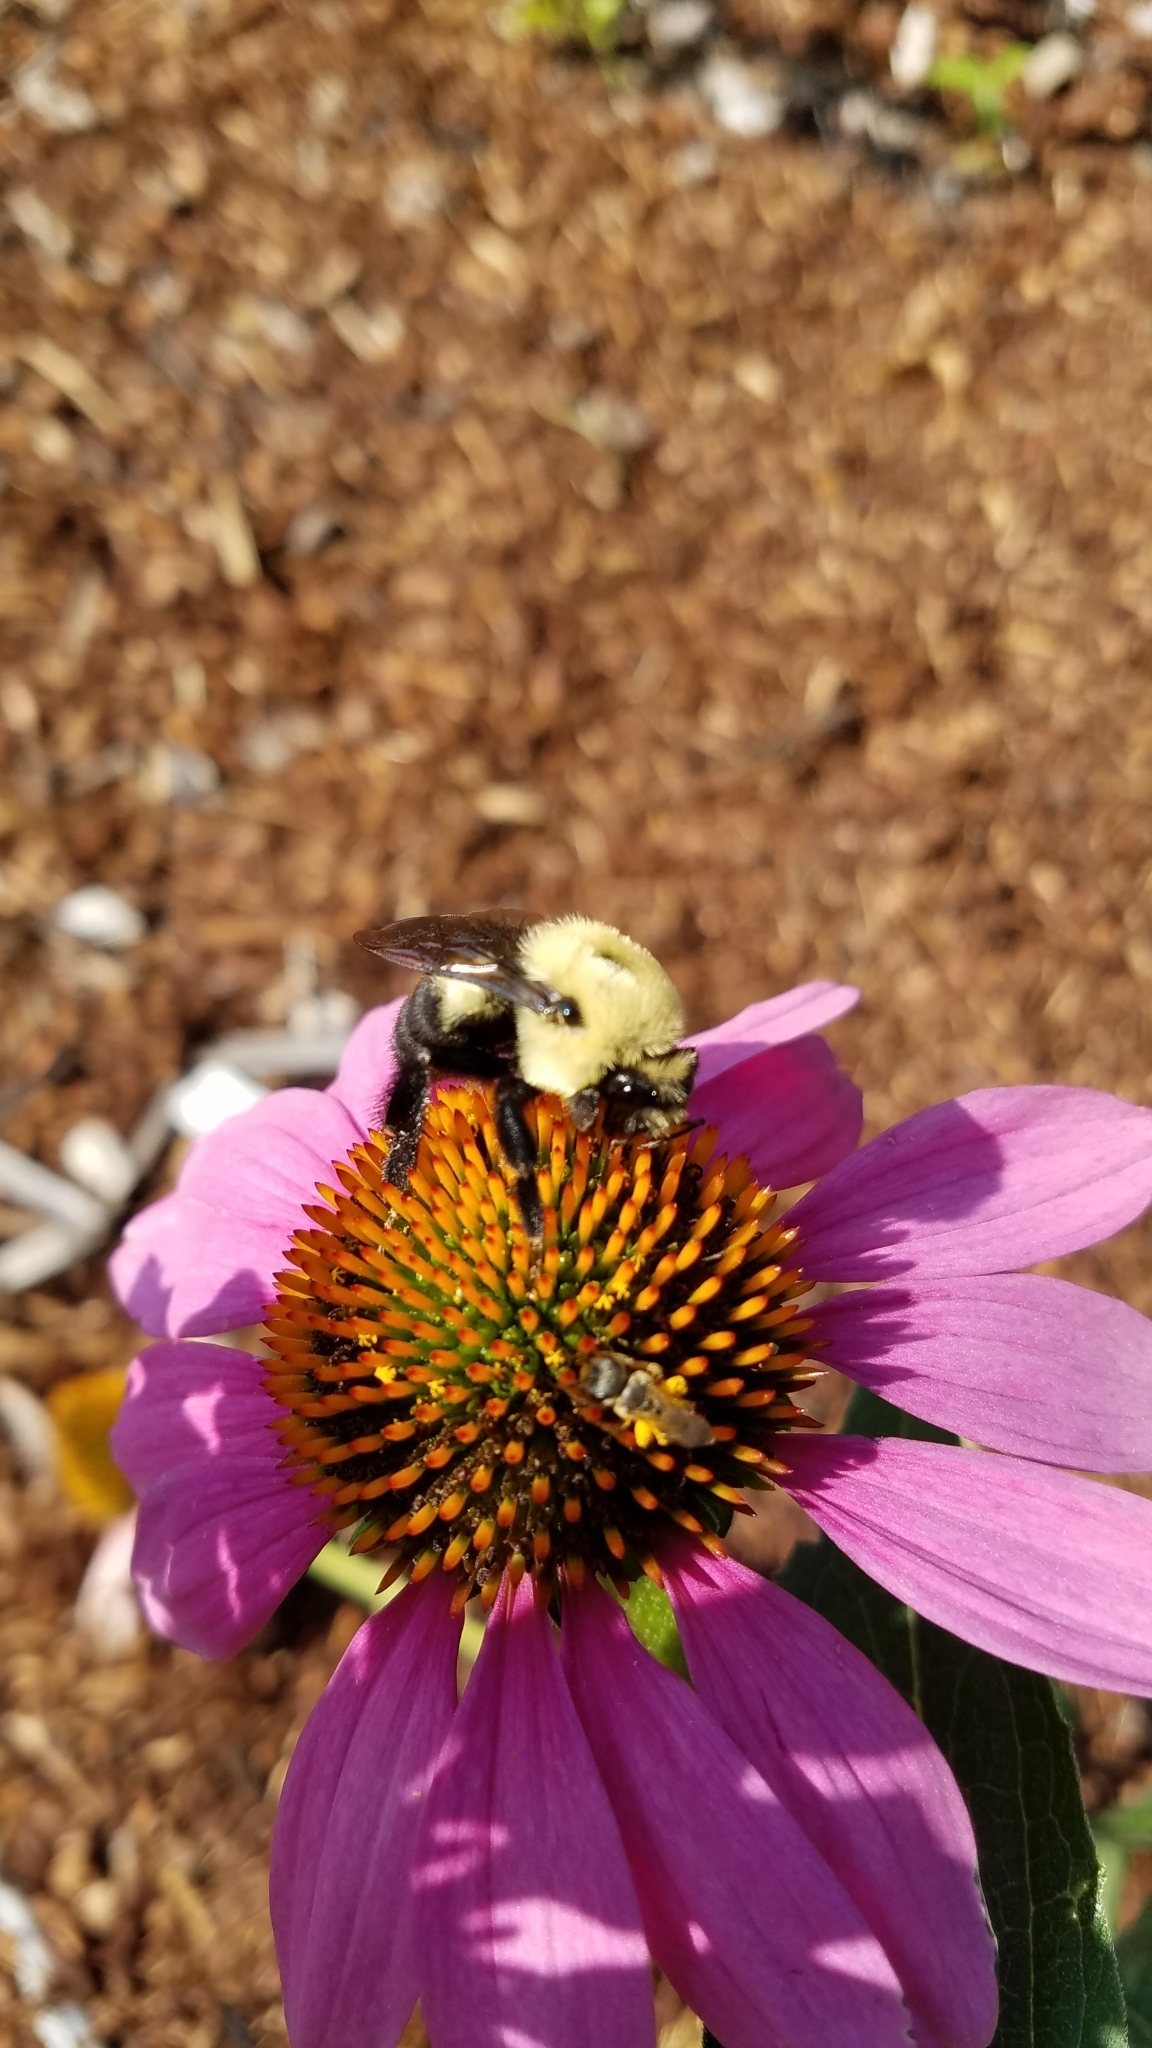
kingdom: Animalia
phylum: Arthropoda
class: Insecta
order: Hymenoptera
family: Apidae
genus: Bombus
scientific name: Bombus griseocollis
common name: Brown-belted bumble bee
